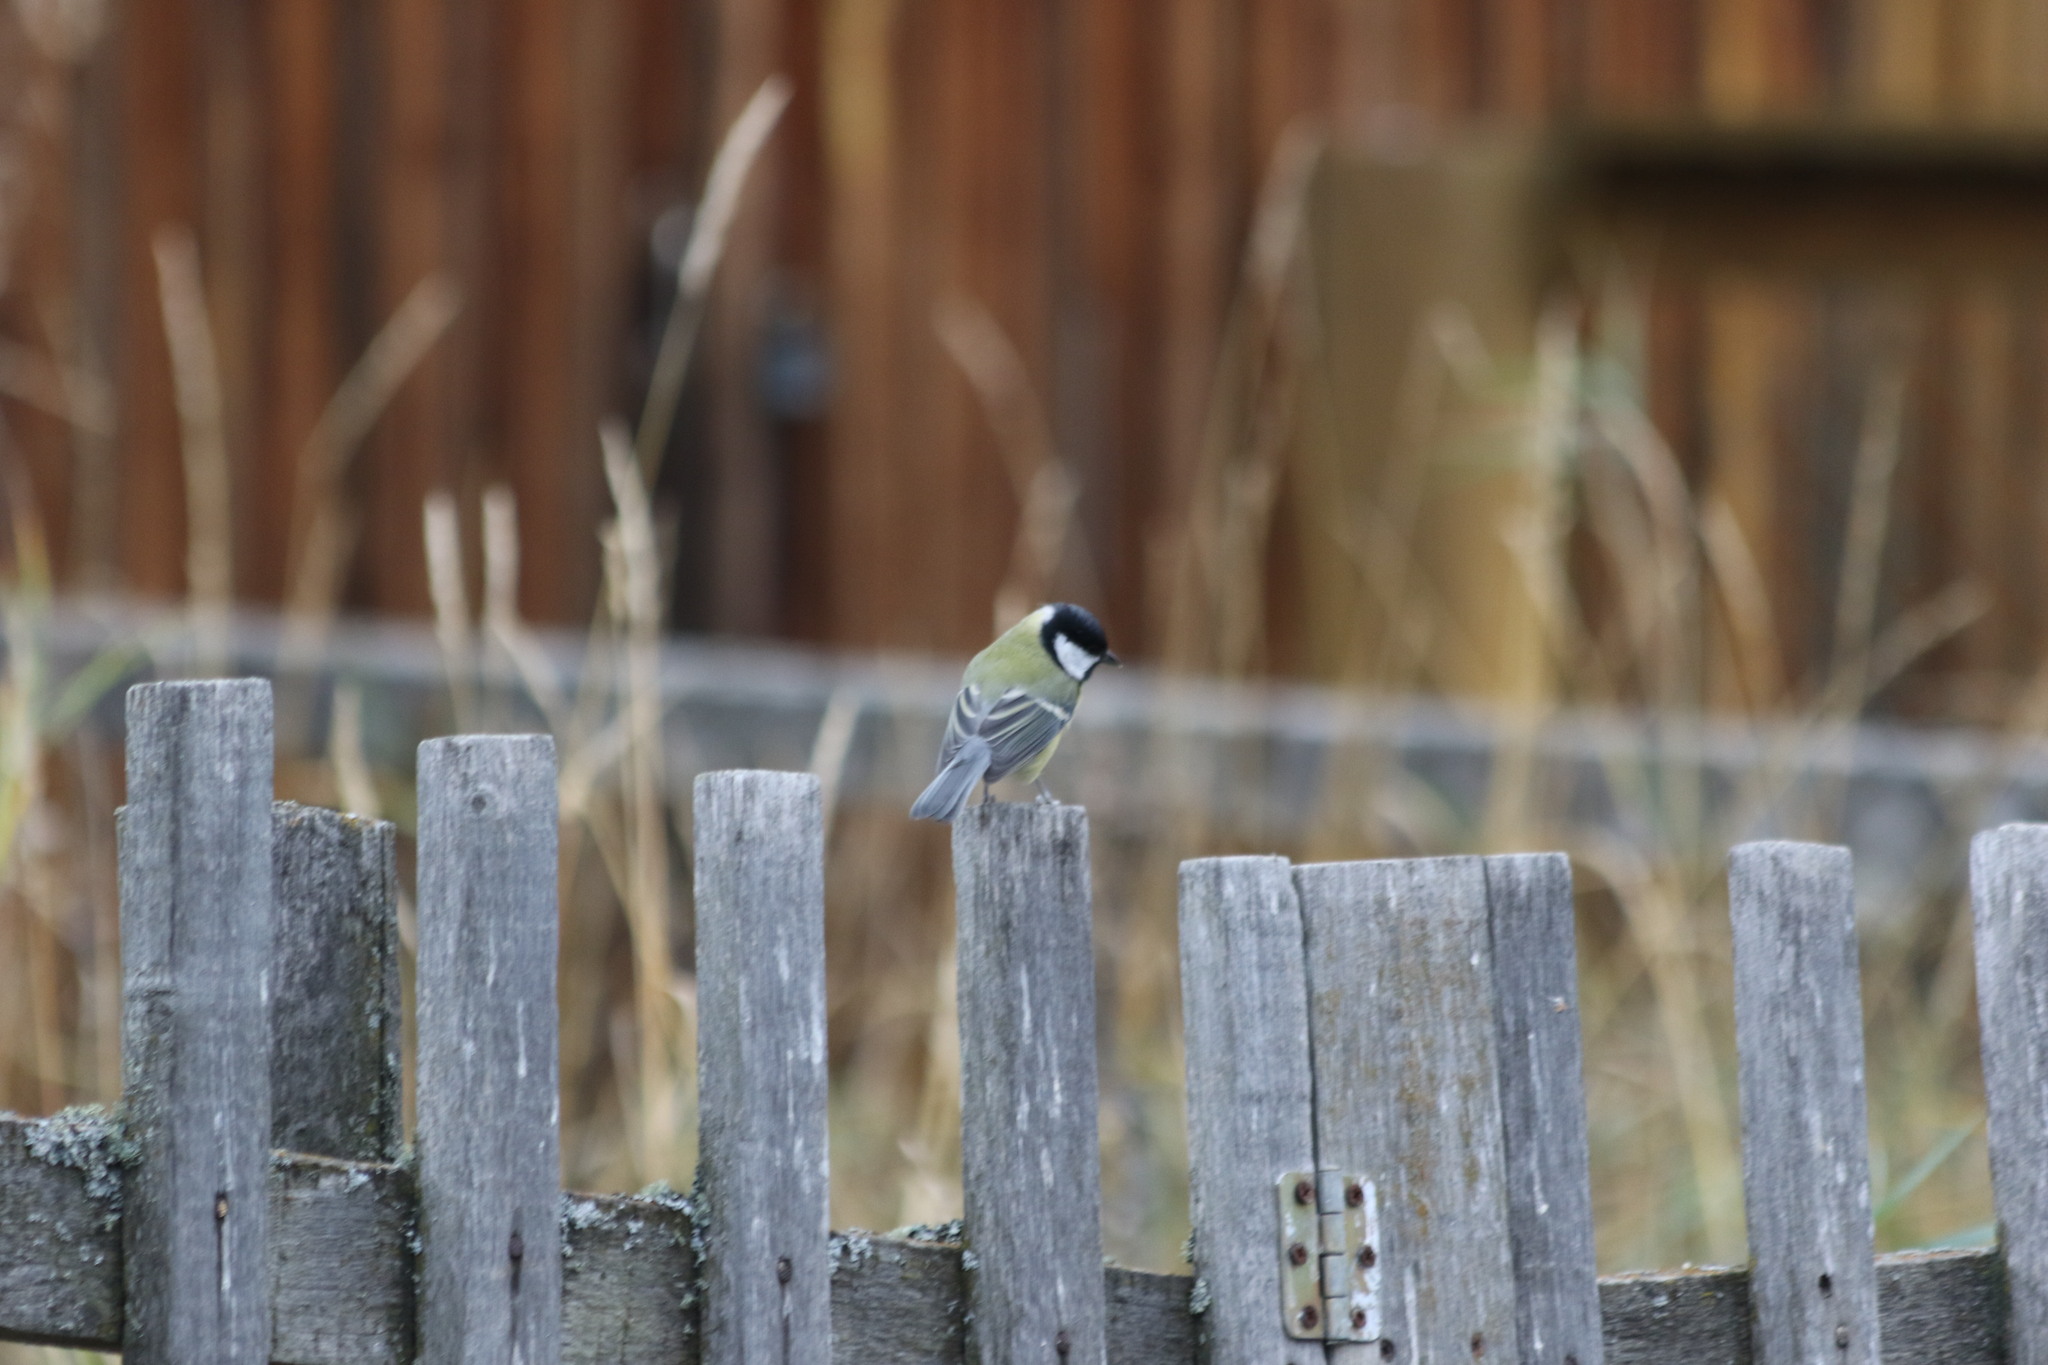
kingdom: Animalia
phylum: Chordata
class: Aves
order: Passeriformes
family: Paridae
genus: Parus
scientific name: Parus major
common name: Great tit
